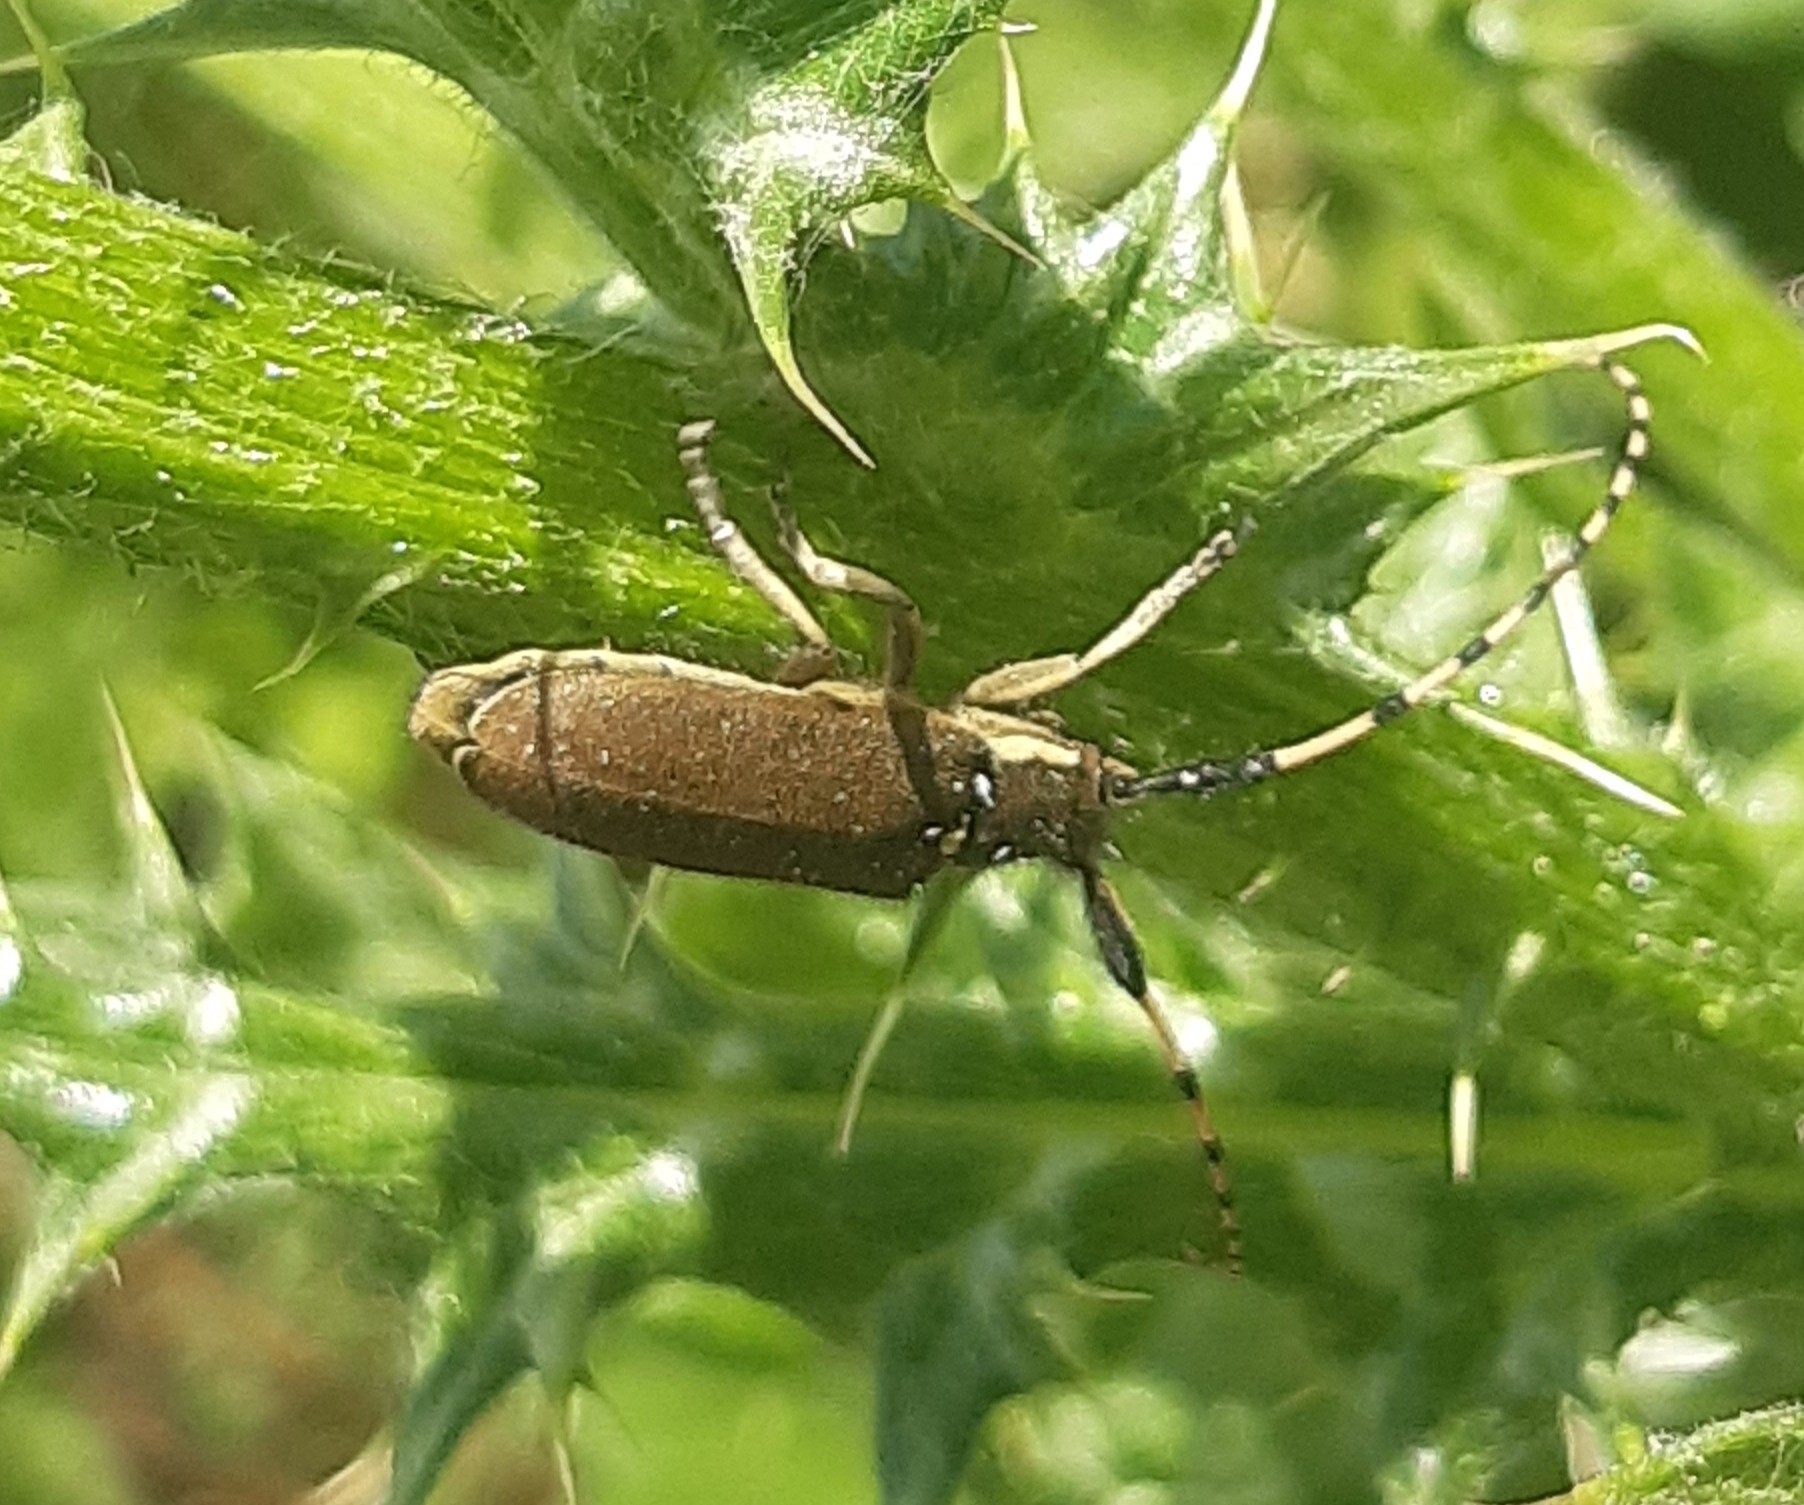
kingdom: Animalia
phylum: Arthropoda
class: Insecta
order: Coleoptera
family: Cerambycidae
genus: Agapanthia
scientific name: Agapanthia annularis
